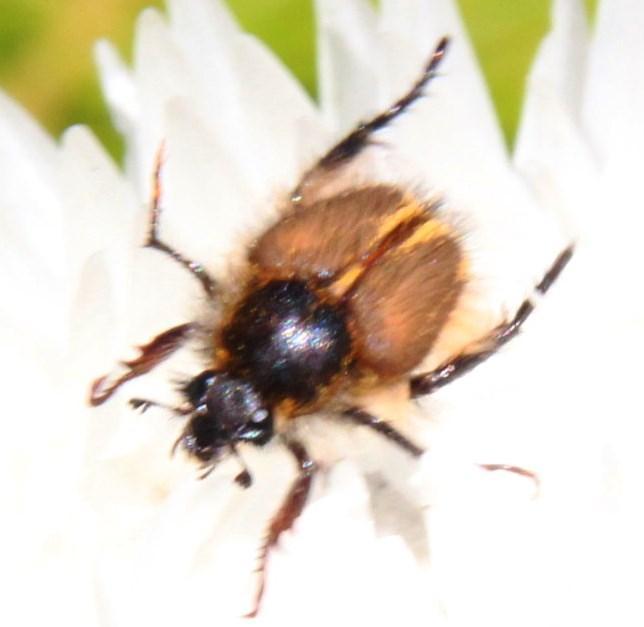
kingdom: Plantae
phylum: Tracheophyta
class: Magnoliopsida
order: Asterales
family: Asteraceae
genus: Syncarpha
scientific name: Syncarpha vestita
